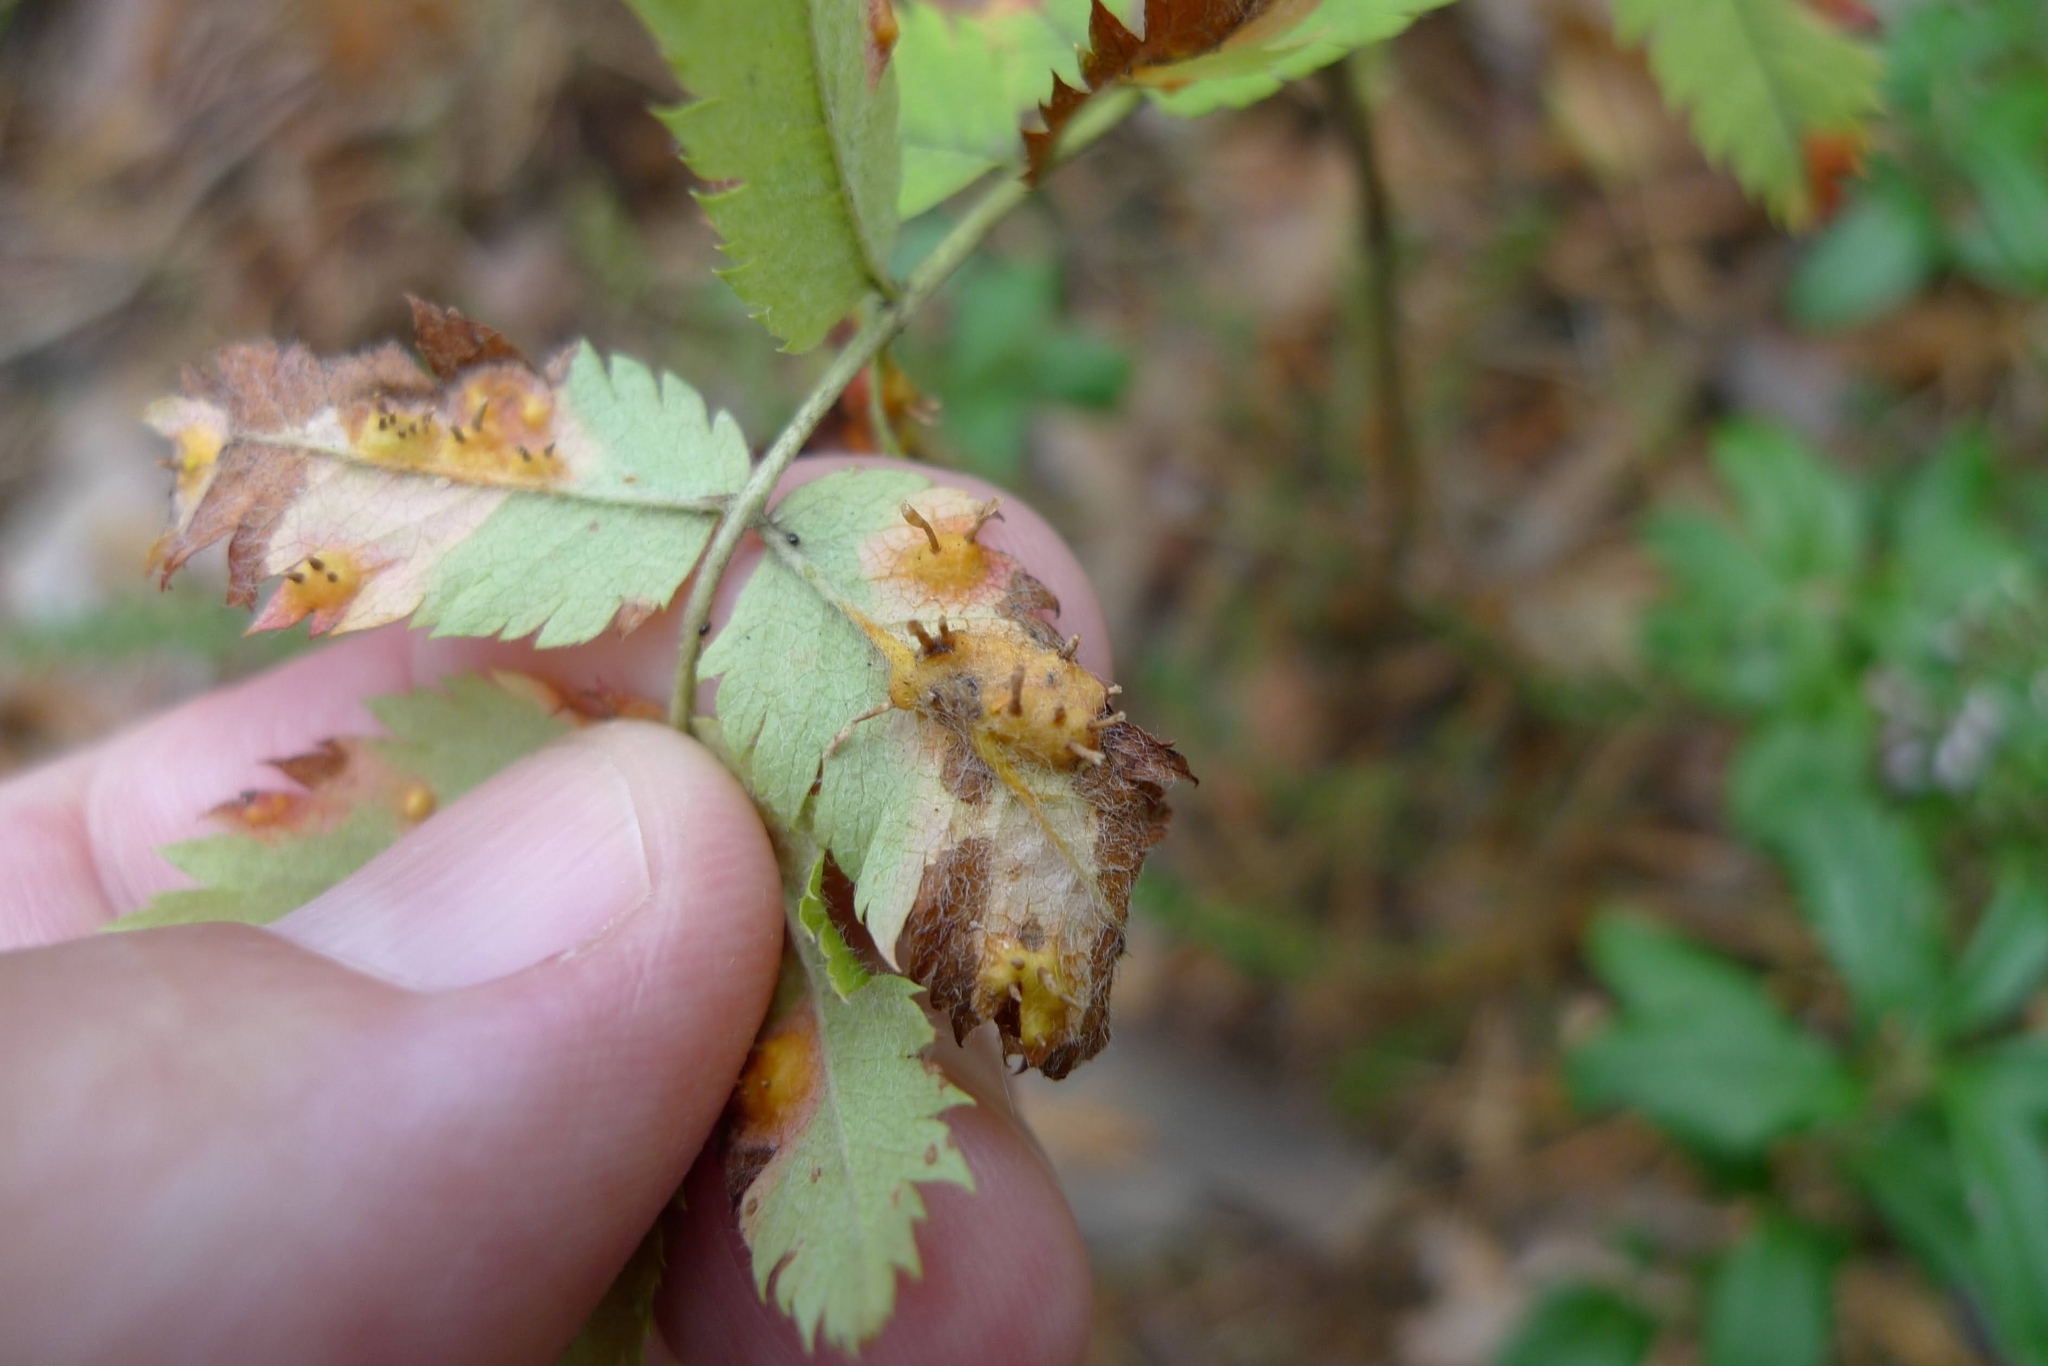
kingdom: Fungi
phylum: Basidiomycota
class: Pucciniomycetes
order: Pucciniales
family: Gymnosporangiaceae
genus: Gymnosporangium
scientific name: Gymnosporangium cornutum
